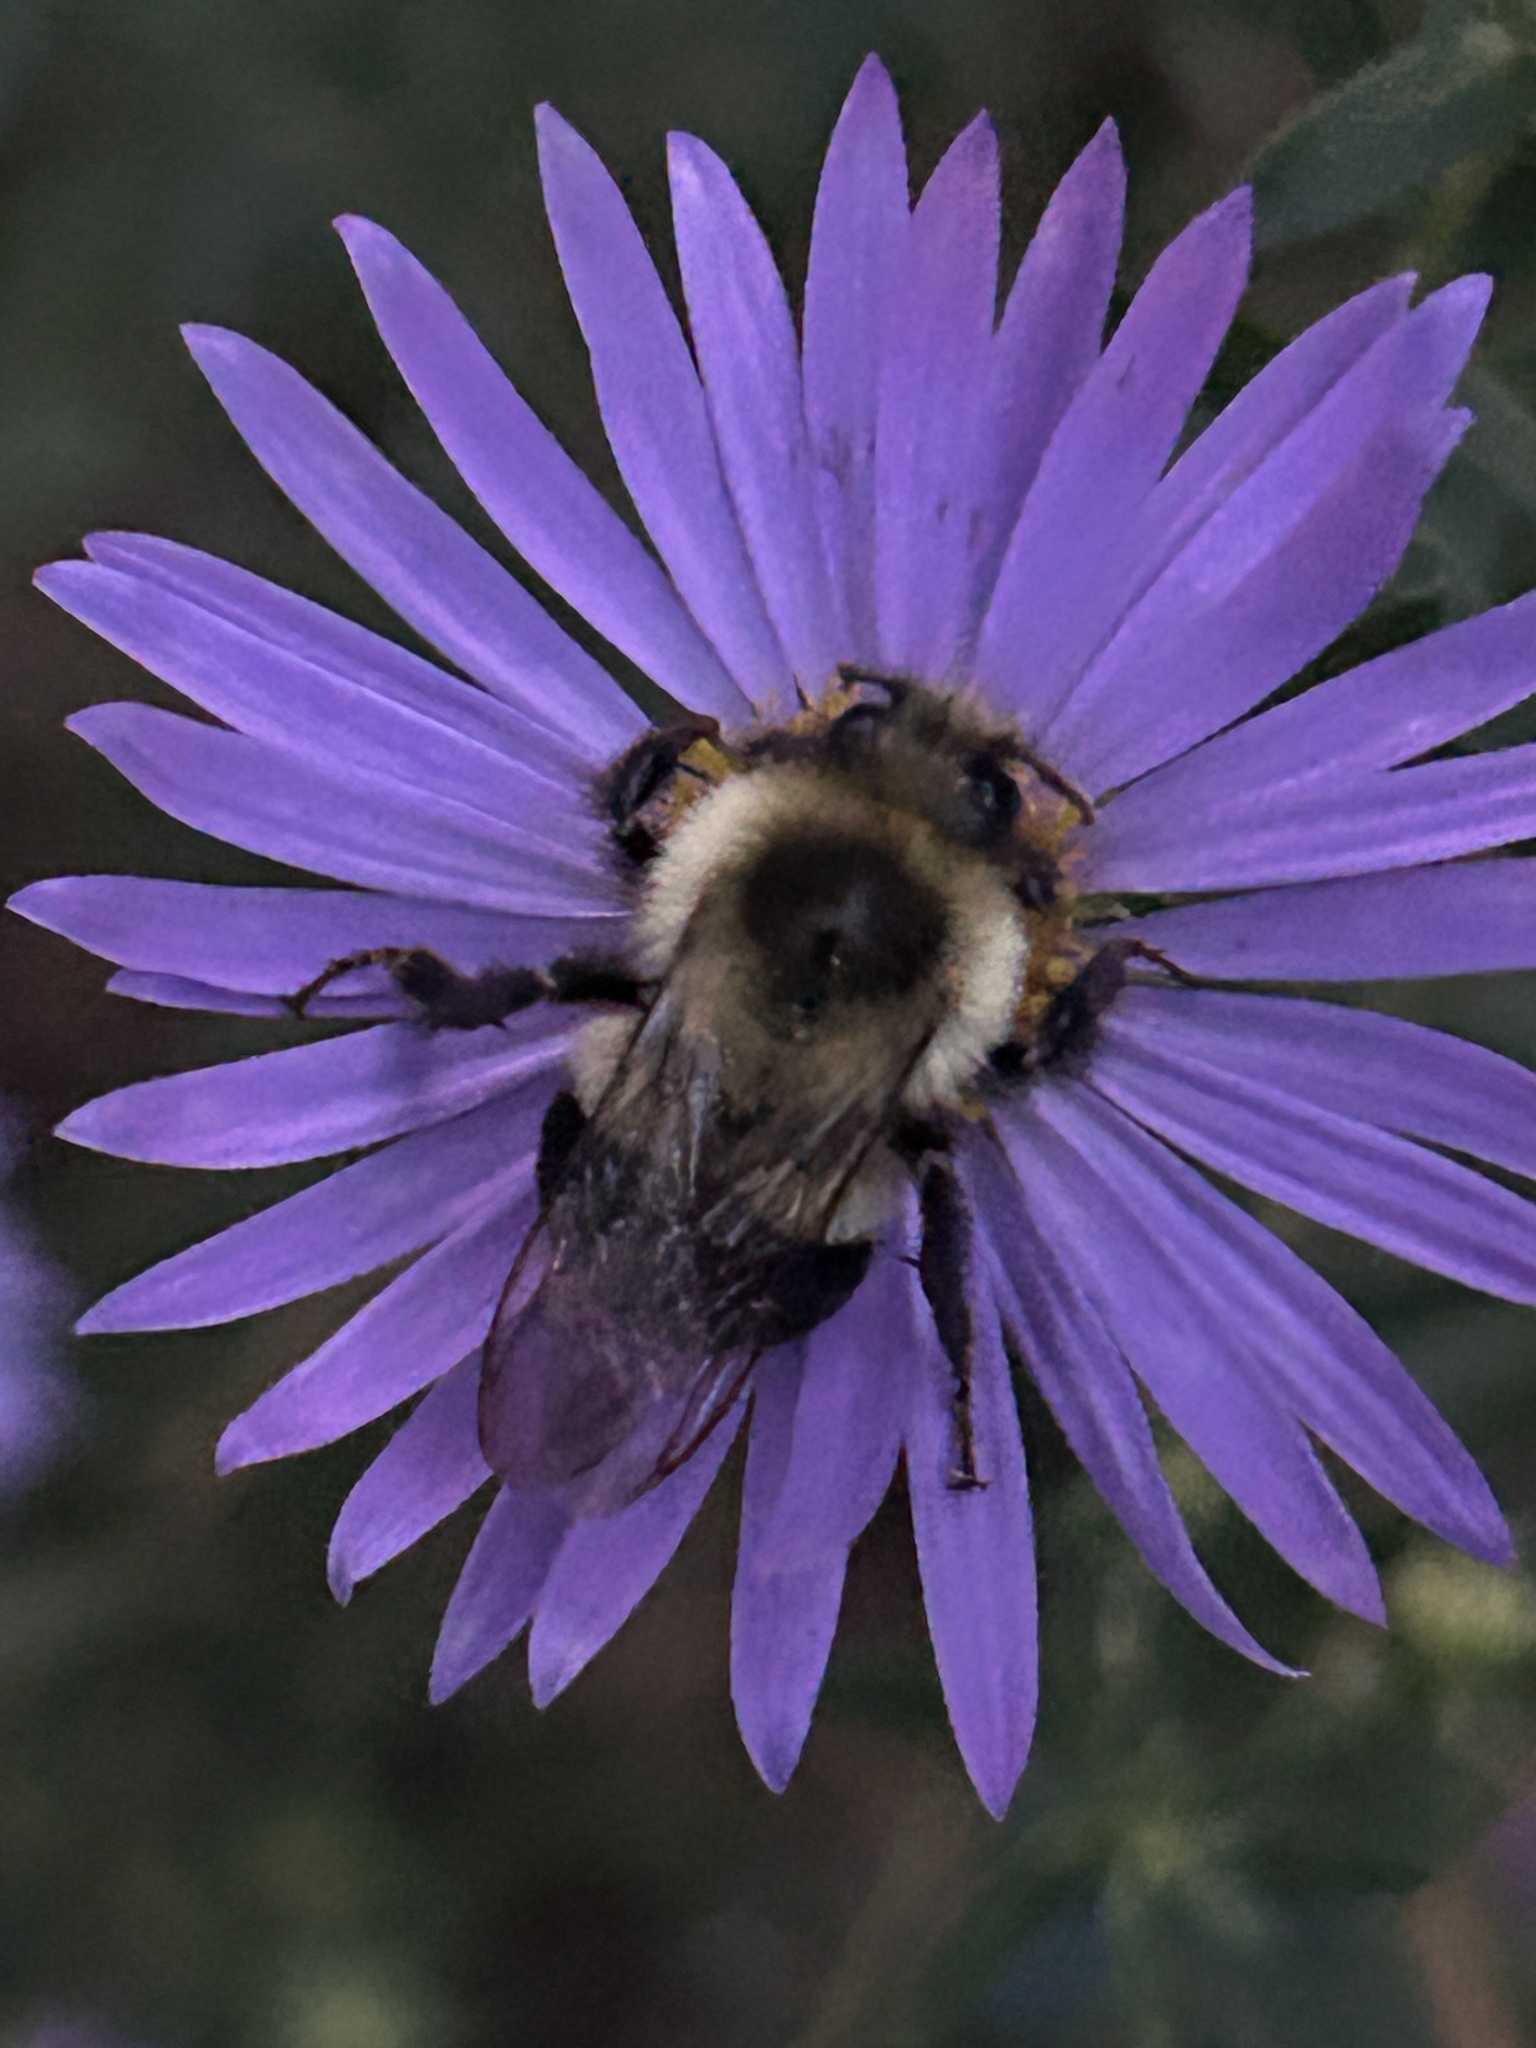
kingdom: Animalia
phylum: Arthropoda
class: Insecta
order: Hymenoptera
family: Apidae
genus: Bombus
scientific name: Bombus impatiens
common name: Common eastern bumble bee
